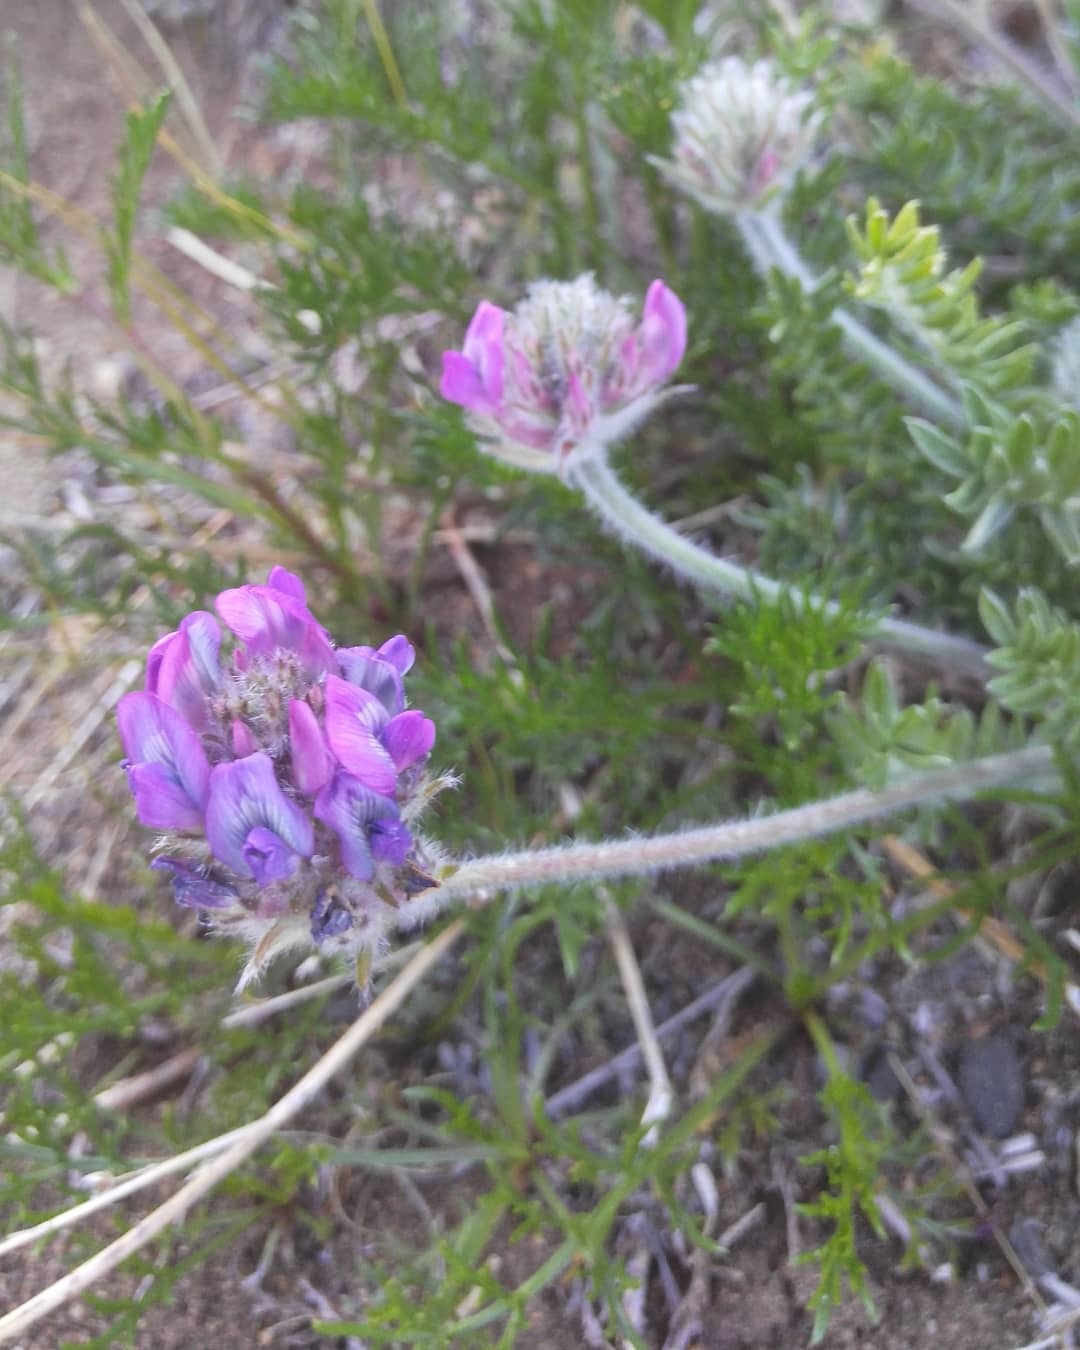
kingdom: Plantae
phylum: Tracheophyta
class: Magnoliopsida
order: Fabales
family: Fabaceae
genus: Oxytropis
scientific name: Oxytropis turczaninovii
